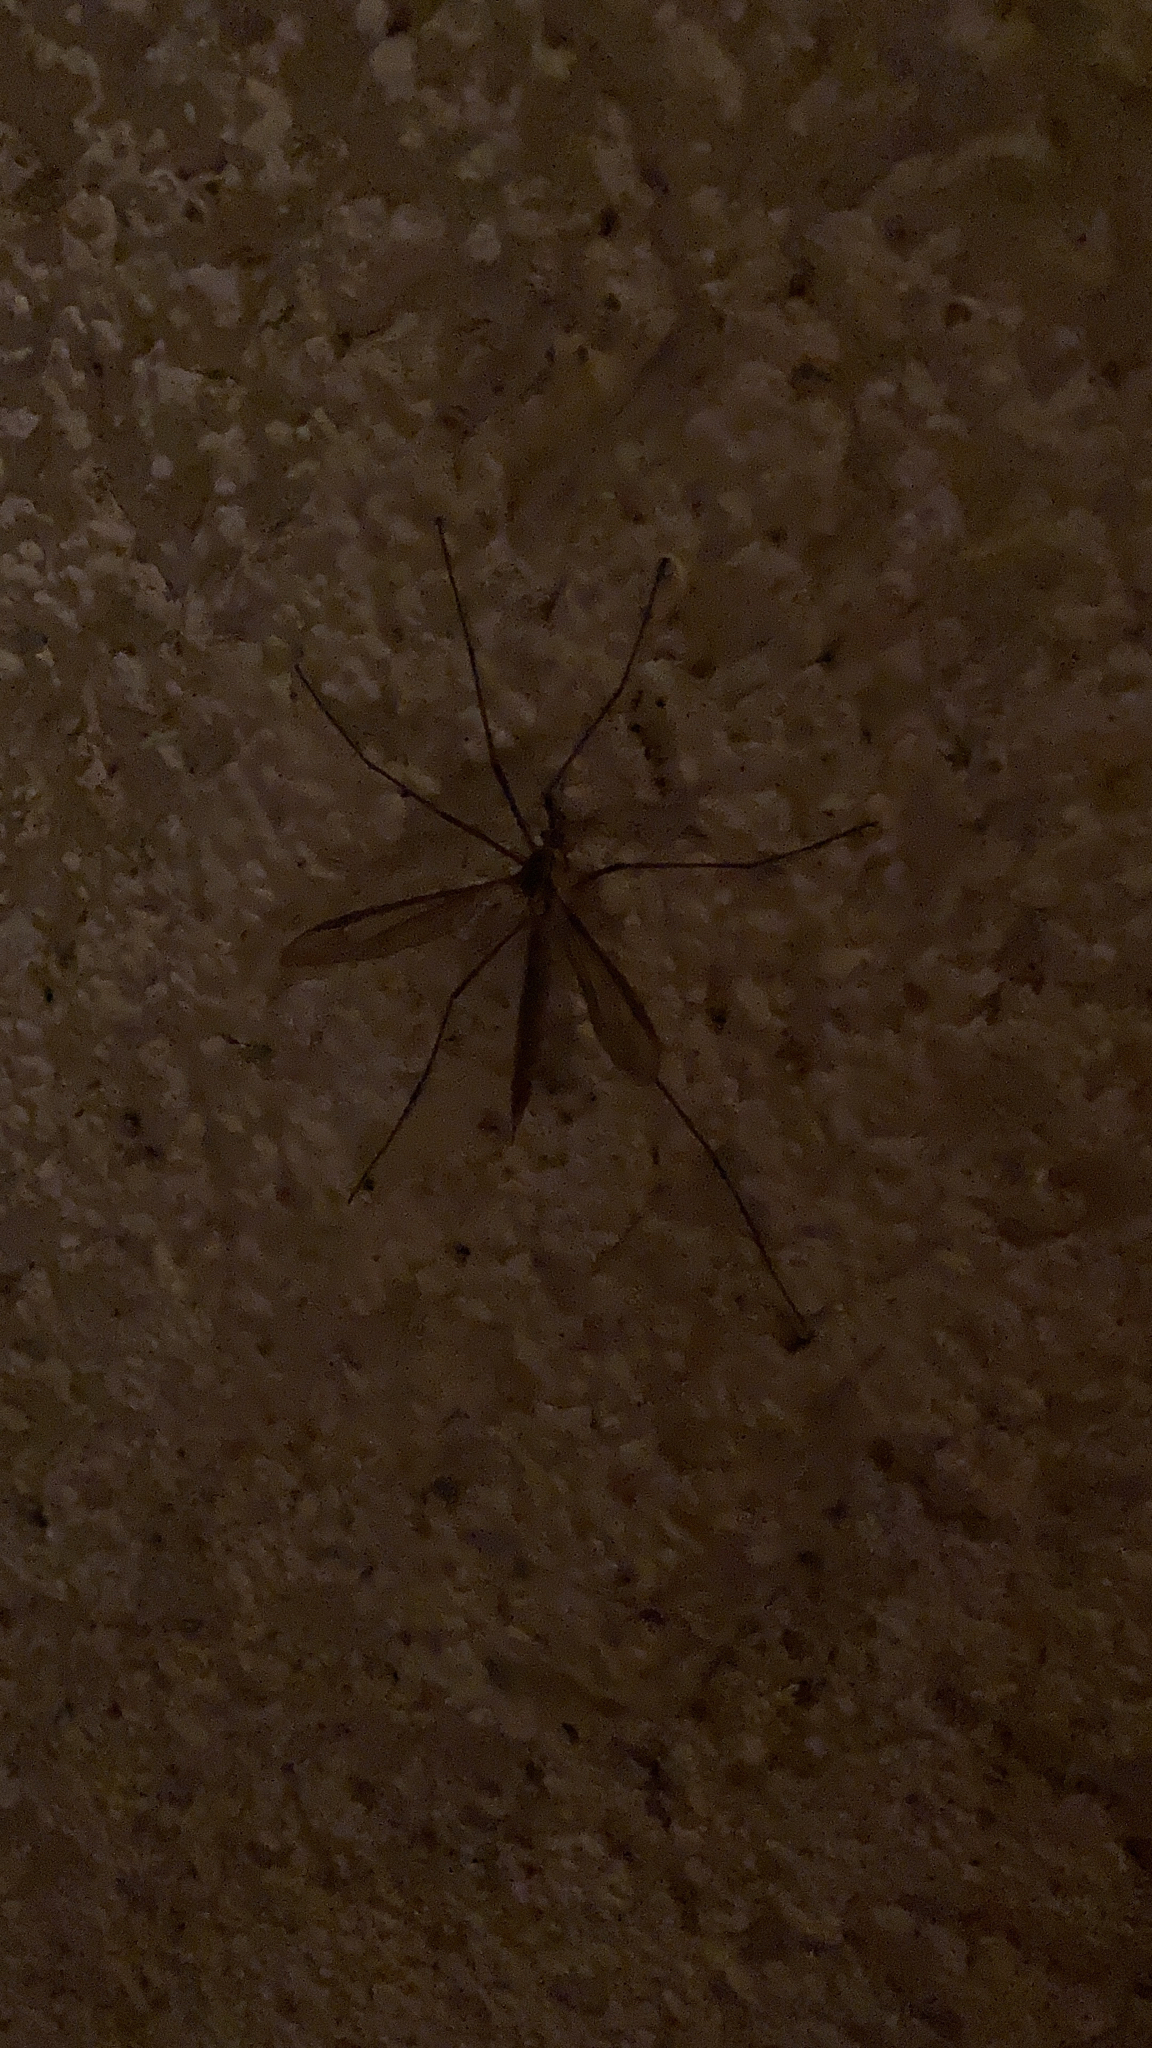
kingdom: Animalia
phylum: Arthropoda
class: Insecta
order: Diptera
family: Tipulidae
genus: Tipula
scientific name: Tipula paludosa
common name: European cranefly
